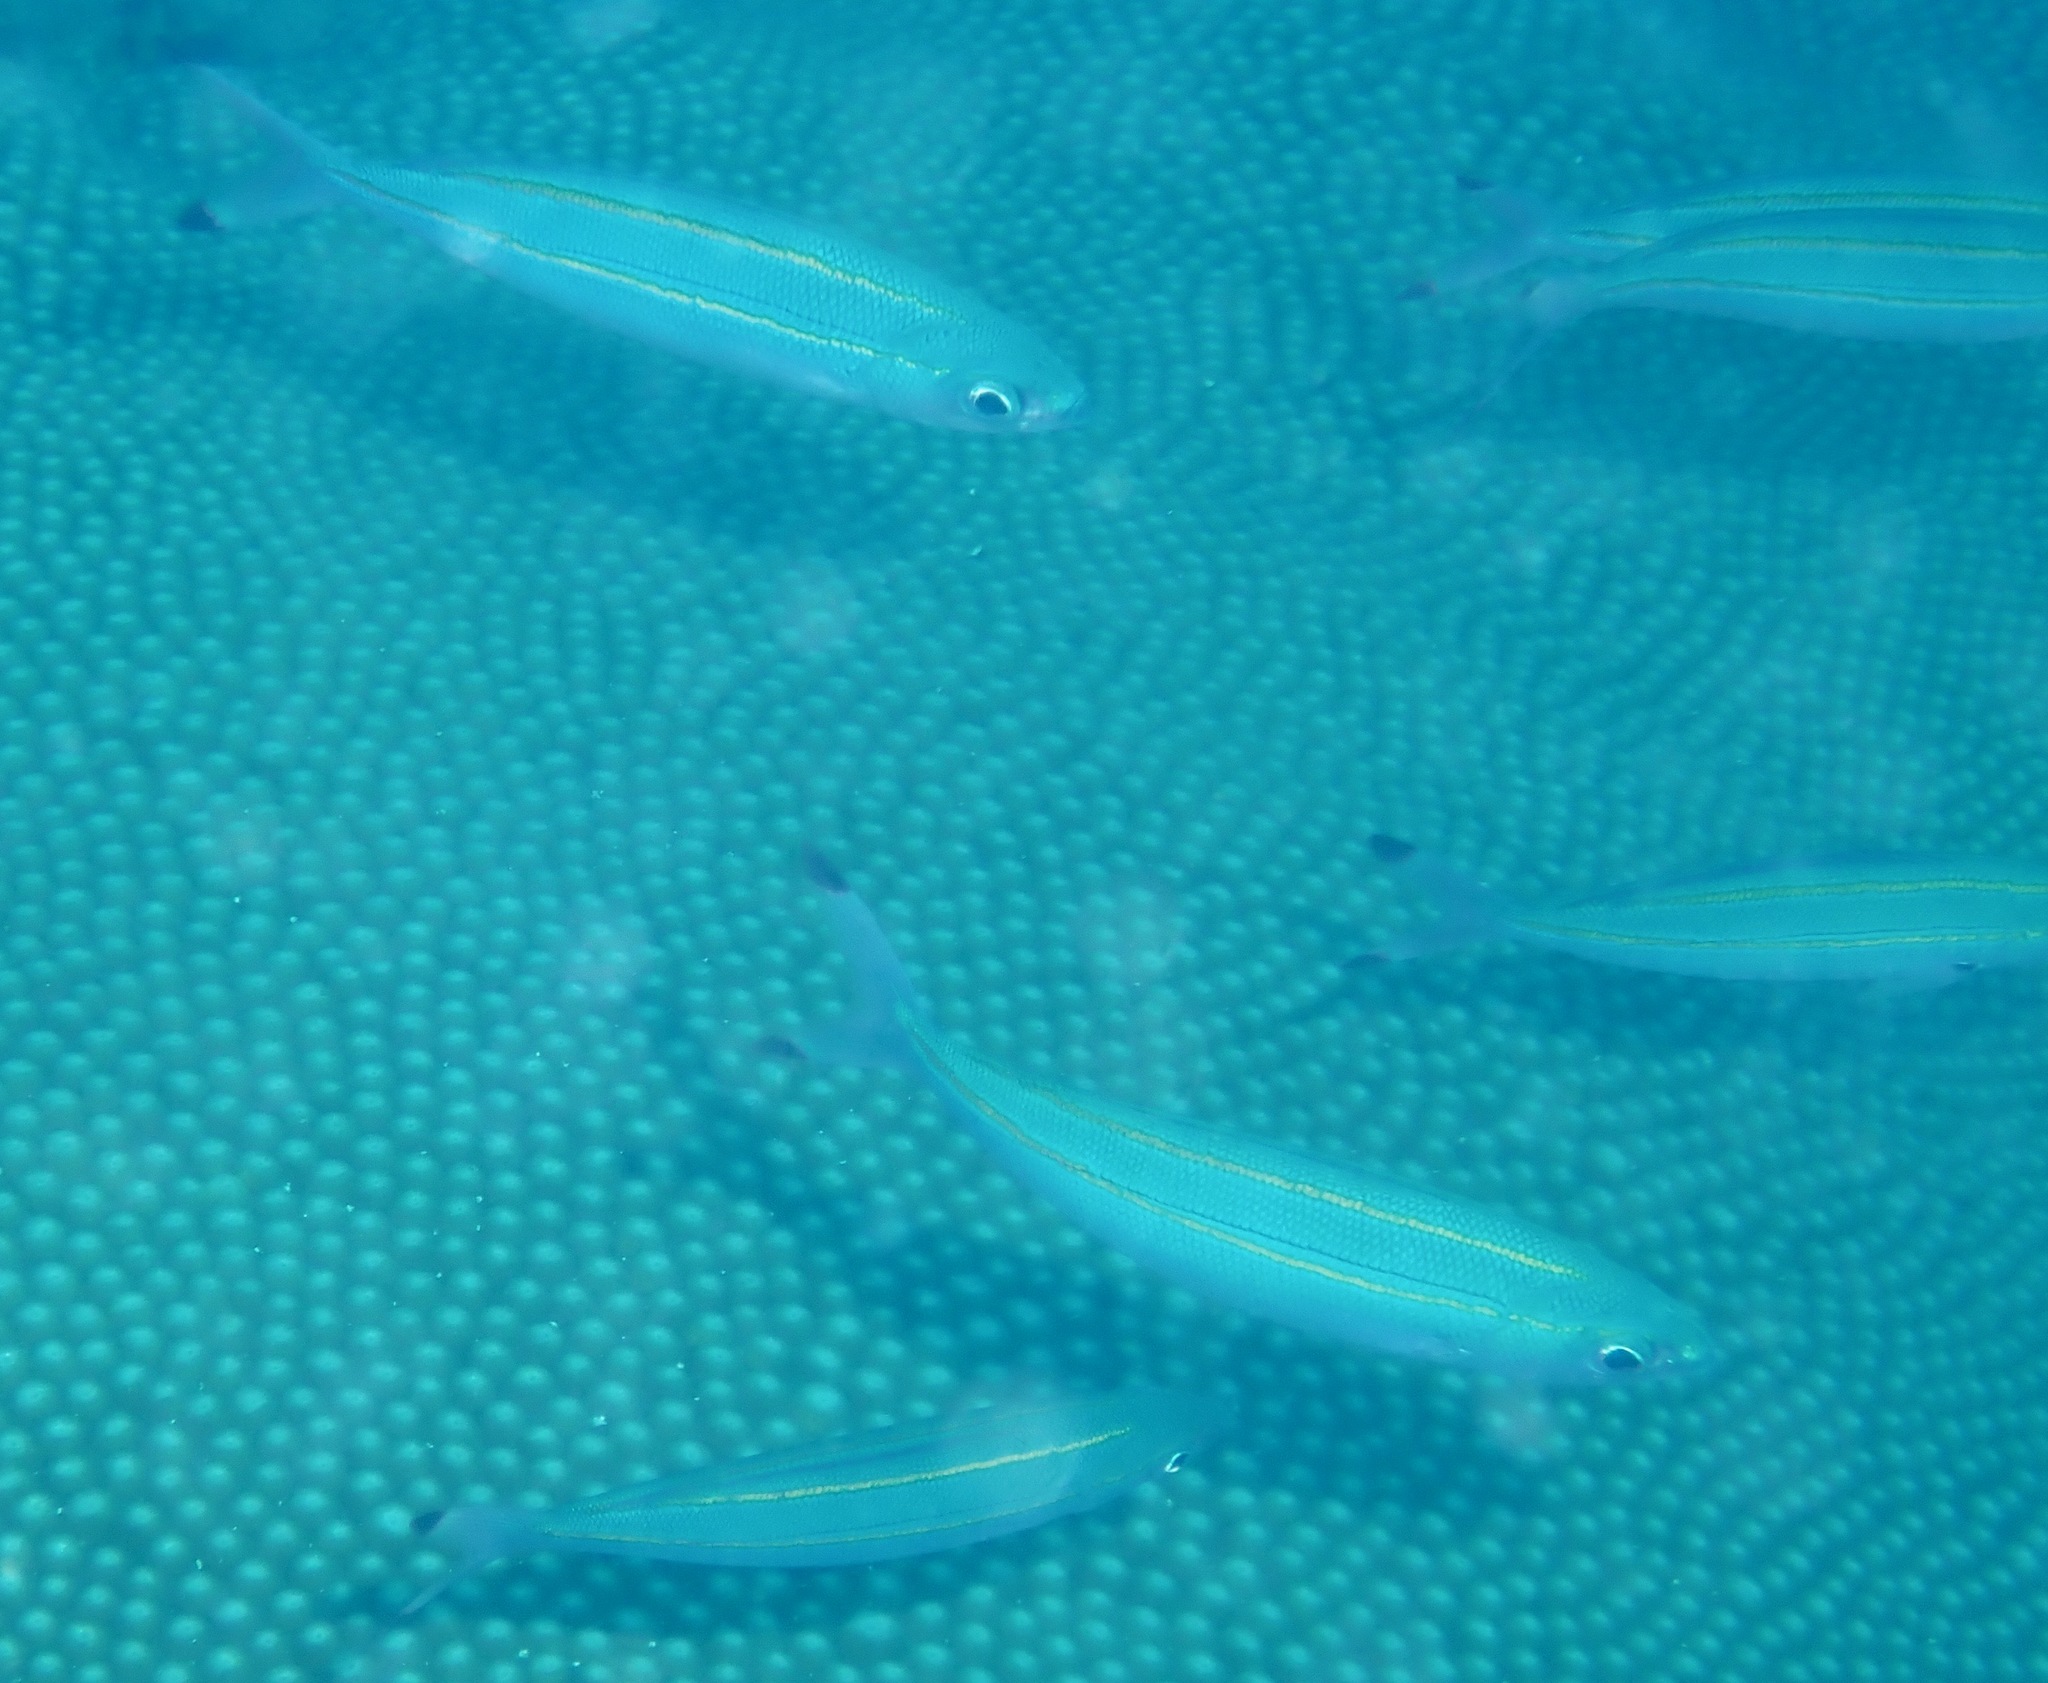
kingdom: Animalia
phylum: Chordata
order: Perciformes
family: Caesionidae
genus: Pterocaesio
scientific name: Pterocaesio digramma
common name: Double-lined fusilier
